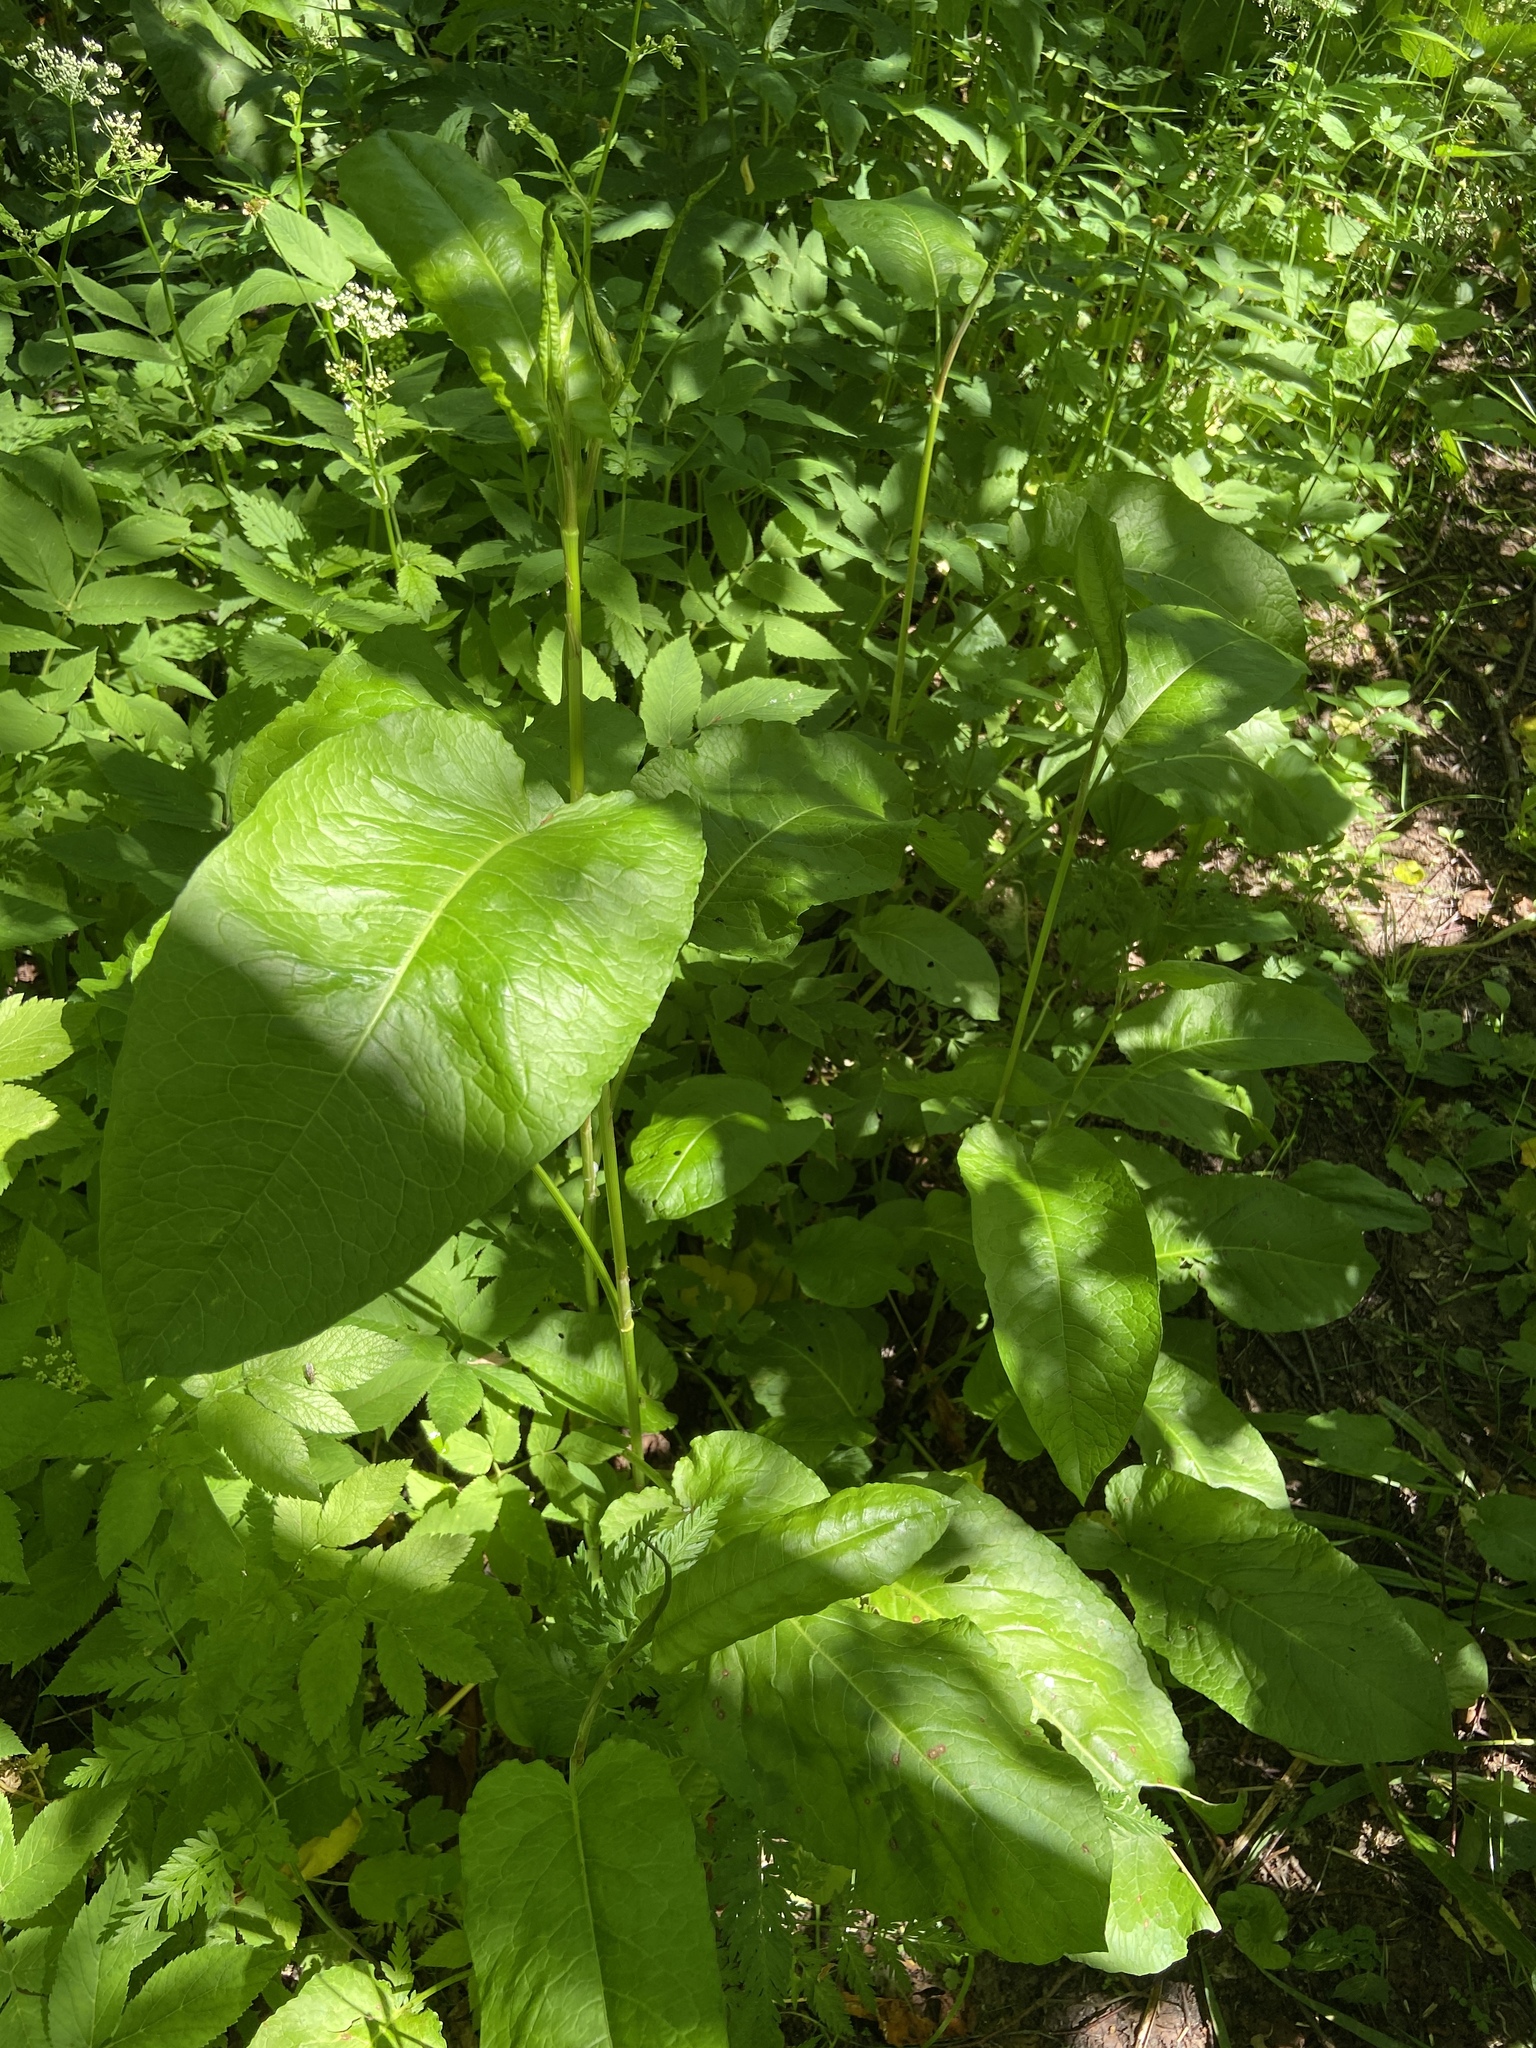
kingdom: Plantae
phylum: Tracheophyta
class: Magnoliopsida
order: Caryophyllales
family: Polygonaceae
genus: Rumex
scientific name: Rumex obtusifolius
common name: Bitter dock
